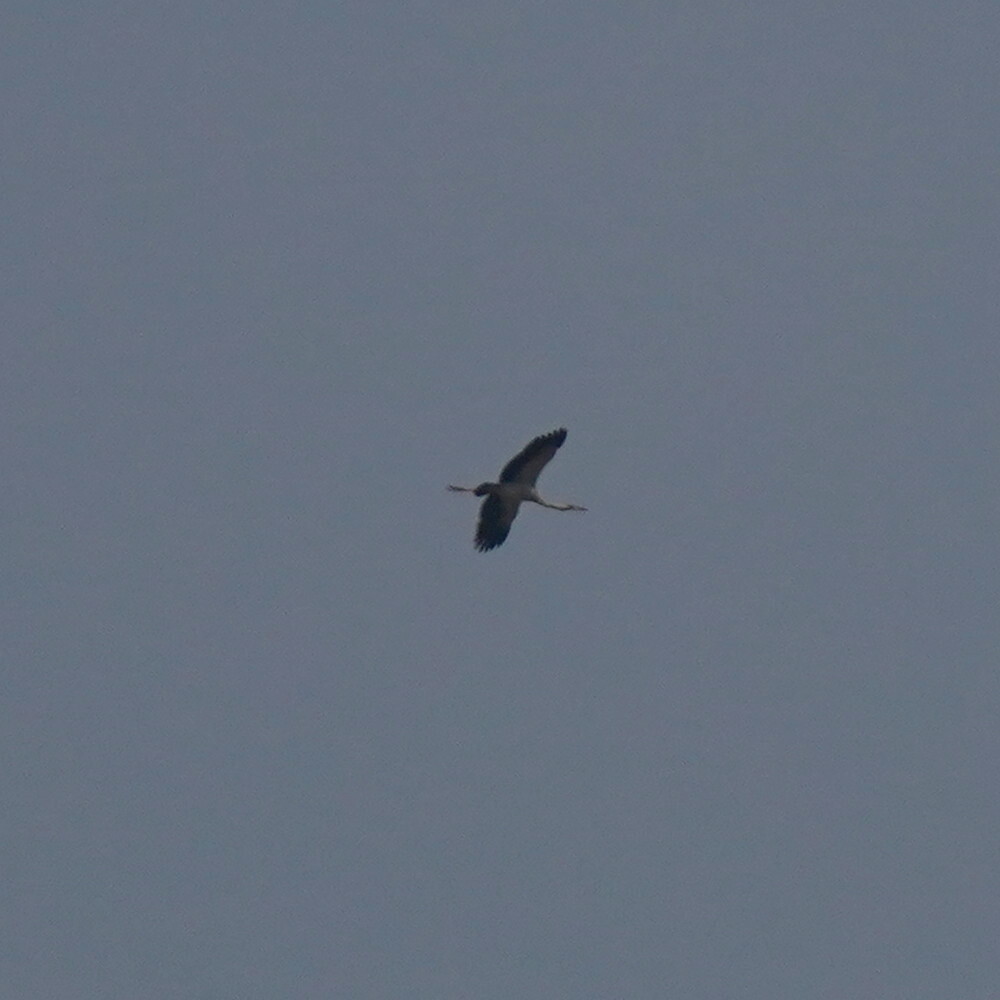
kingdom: Animalia
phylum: Chordata
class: Aves
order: Ciconiiformes
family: Ciconiidae
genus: Anastomus
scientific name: Anastomus oscitans
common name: Asian openbill
